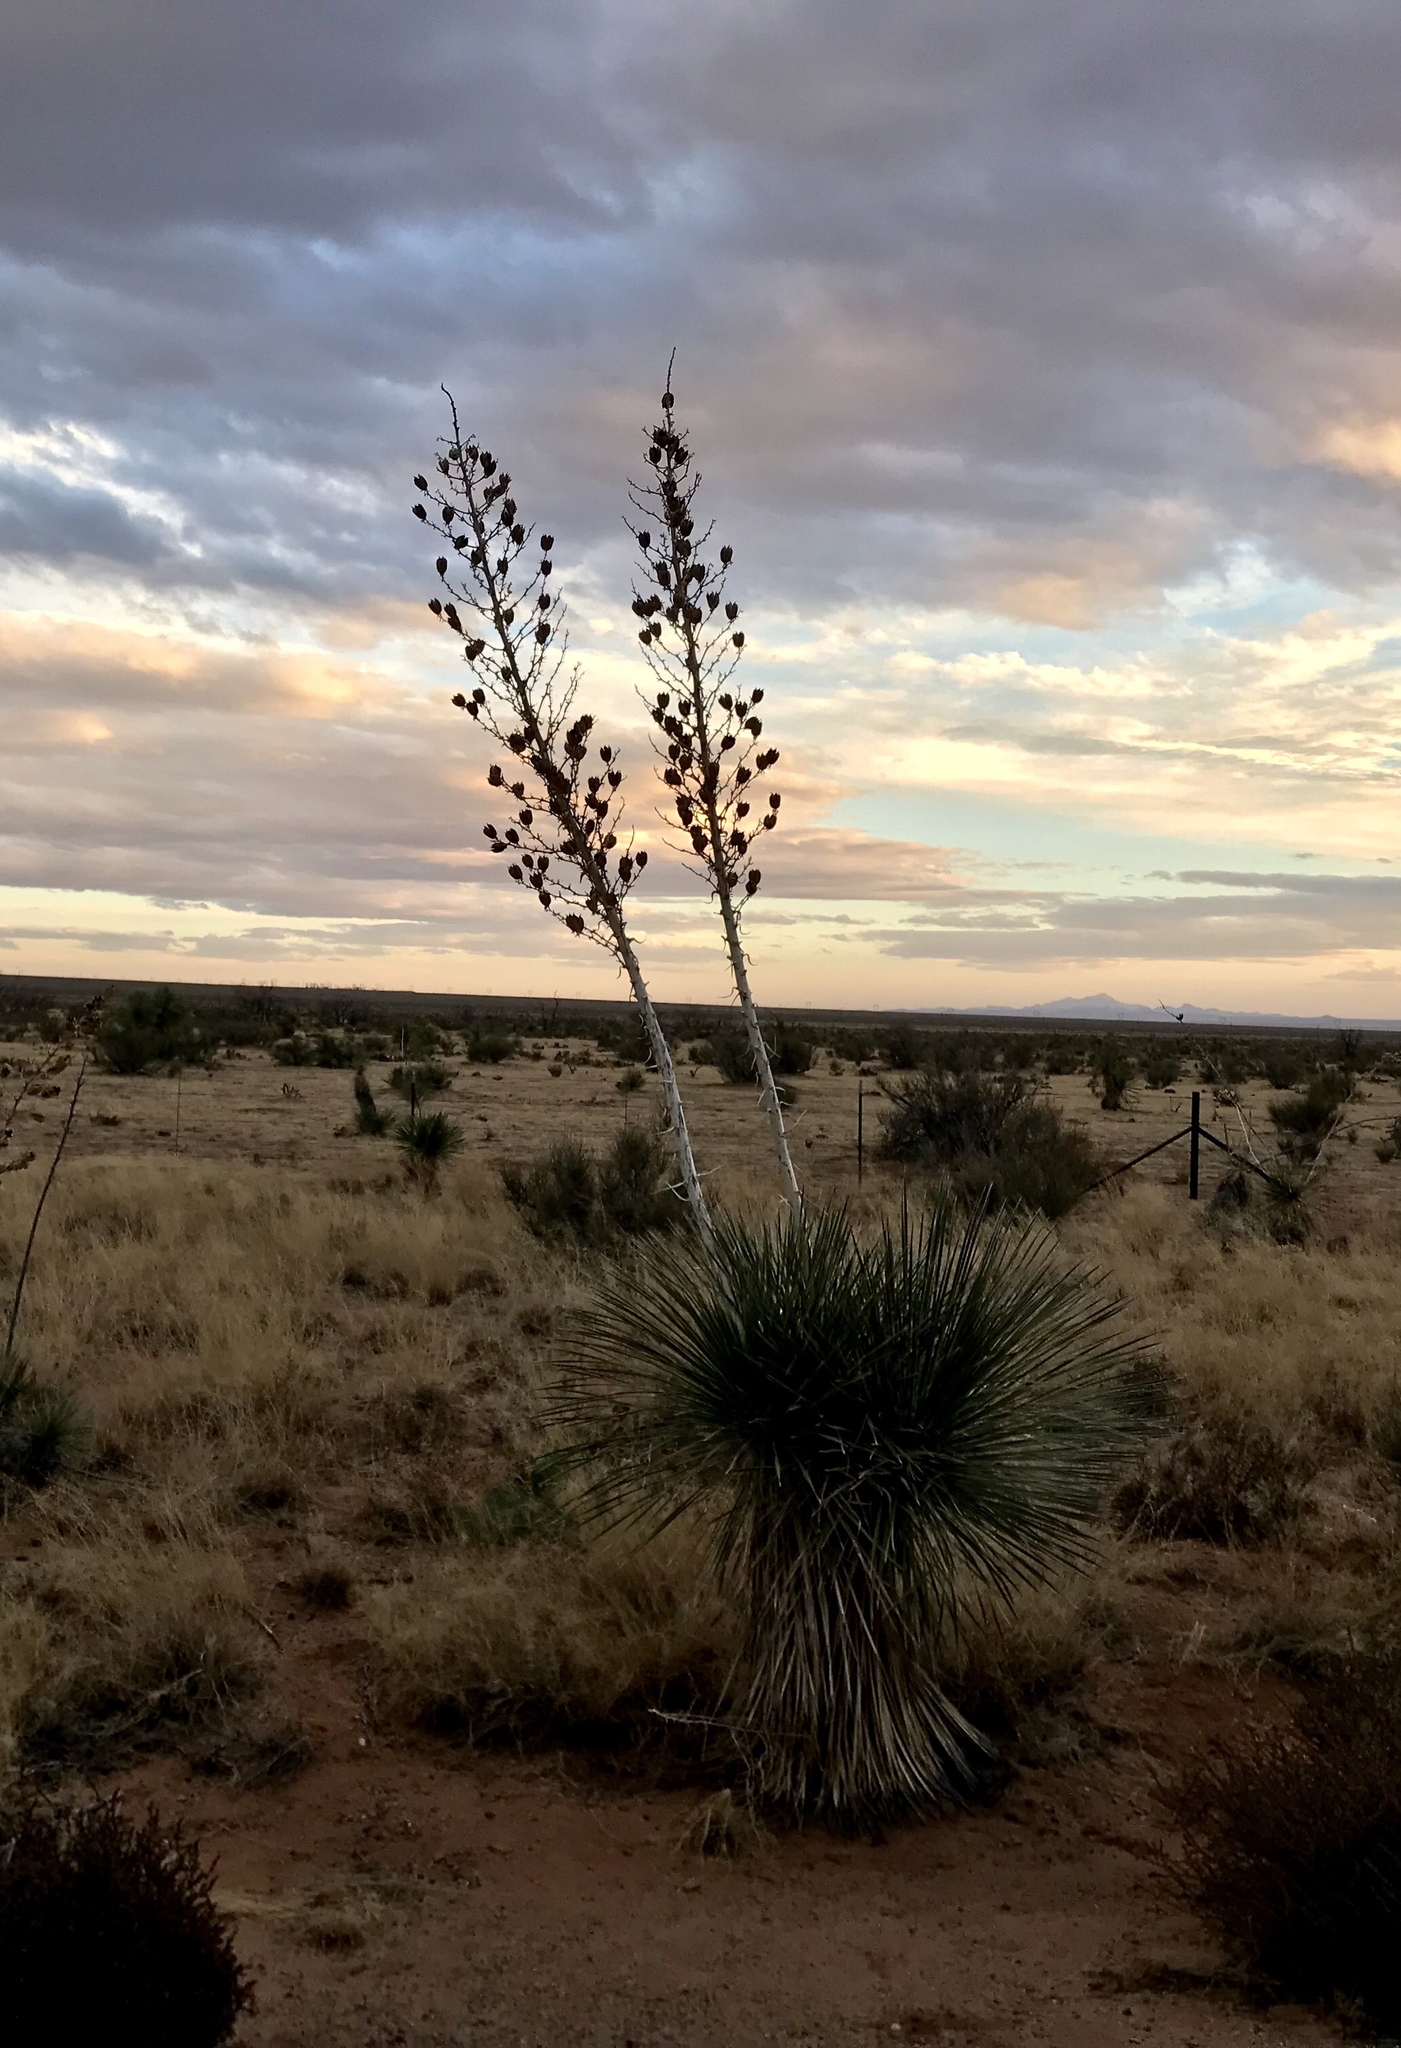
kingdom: Plantae
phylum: Tracheophyta
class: Liliopsida
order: Asparagales
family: Asparagaceae
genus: Yucca
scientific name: Yucca elata
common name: Palmella
